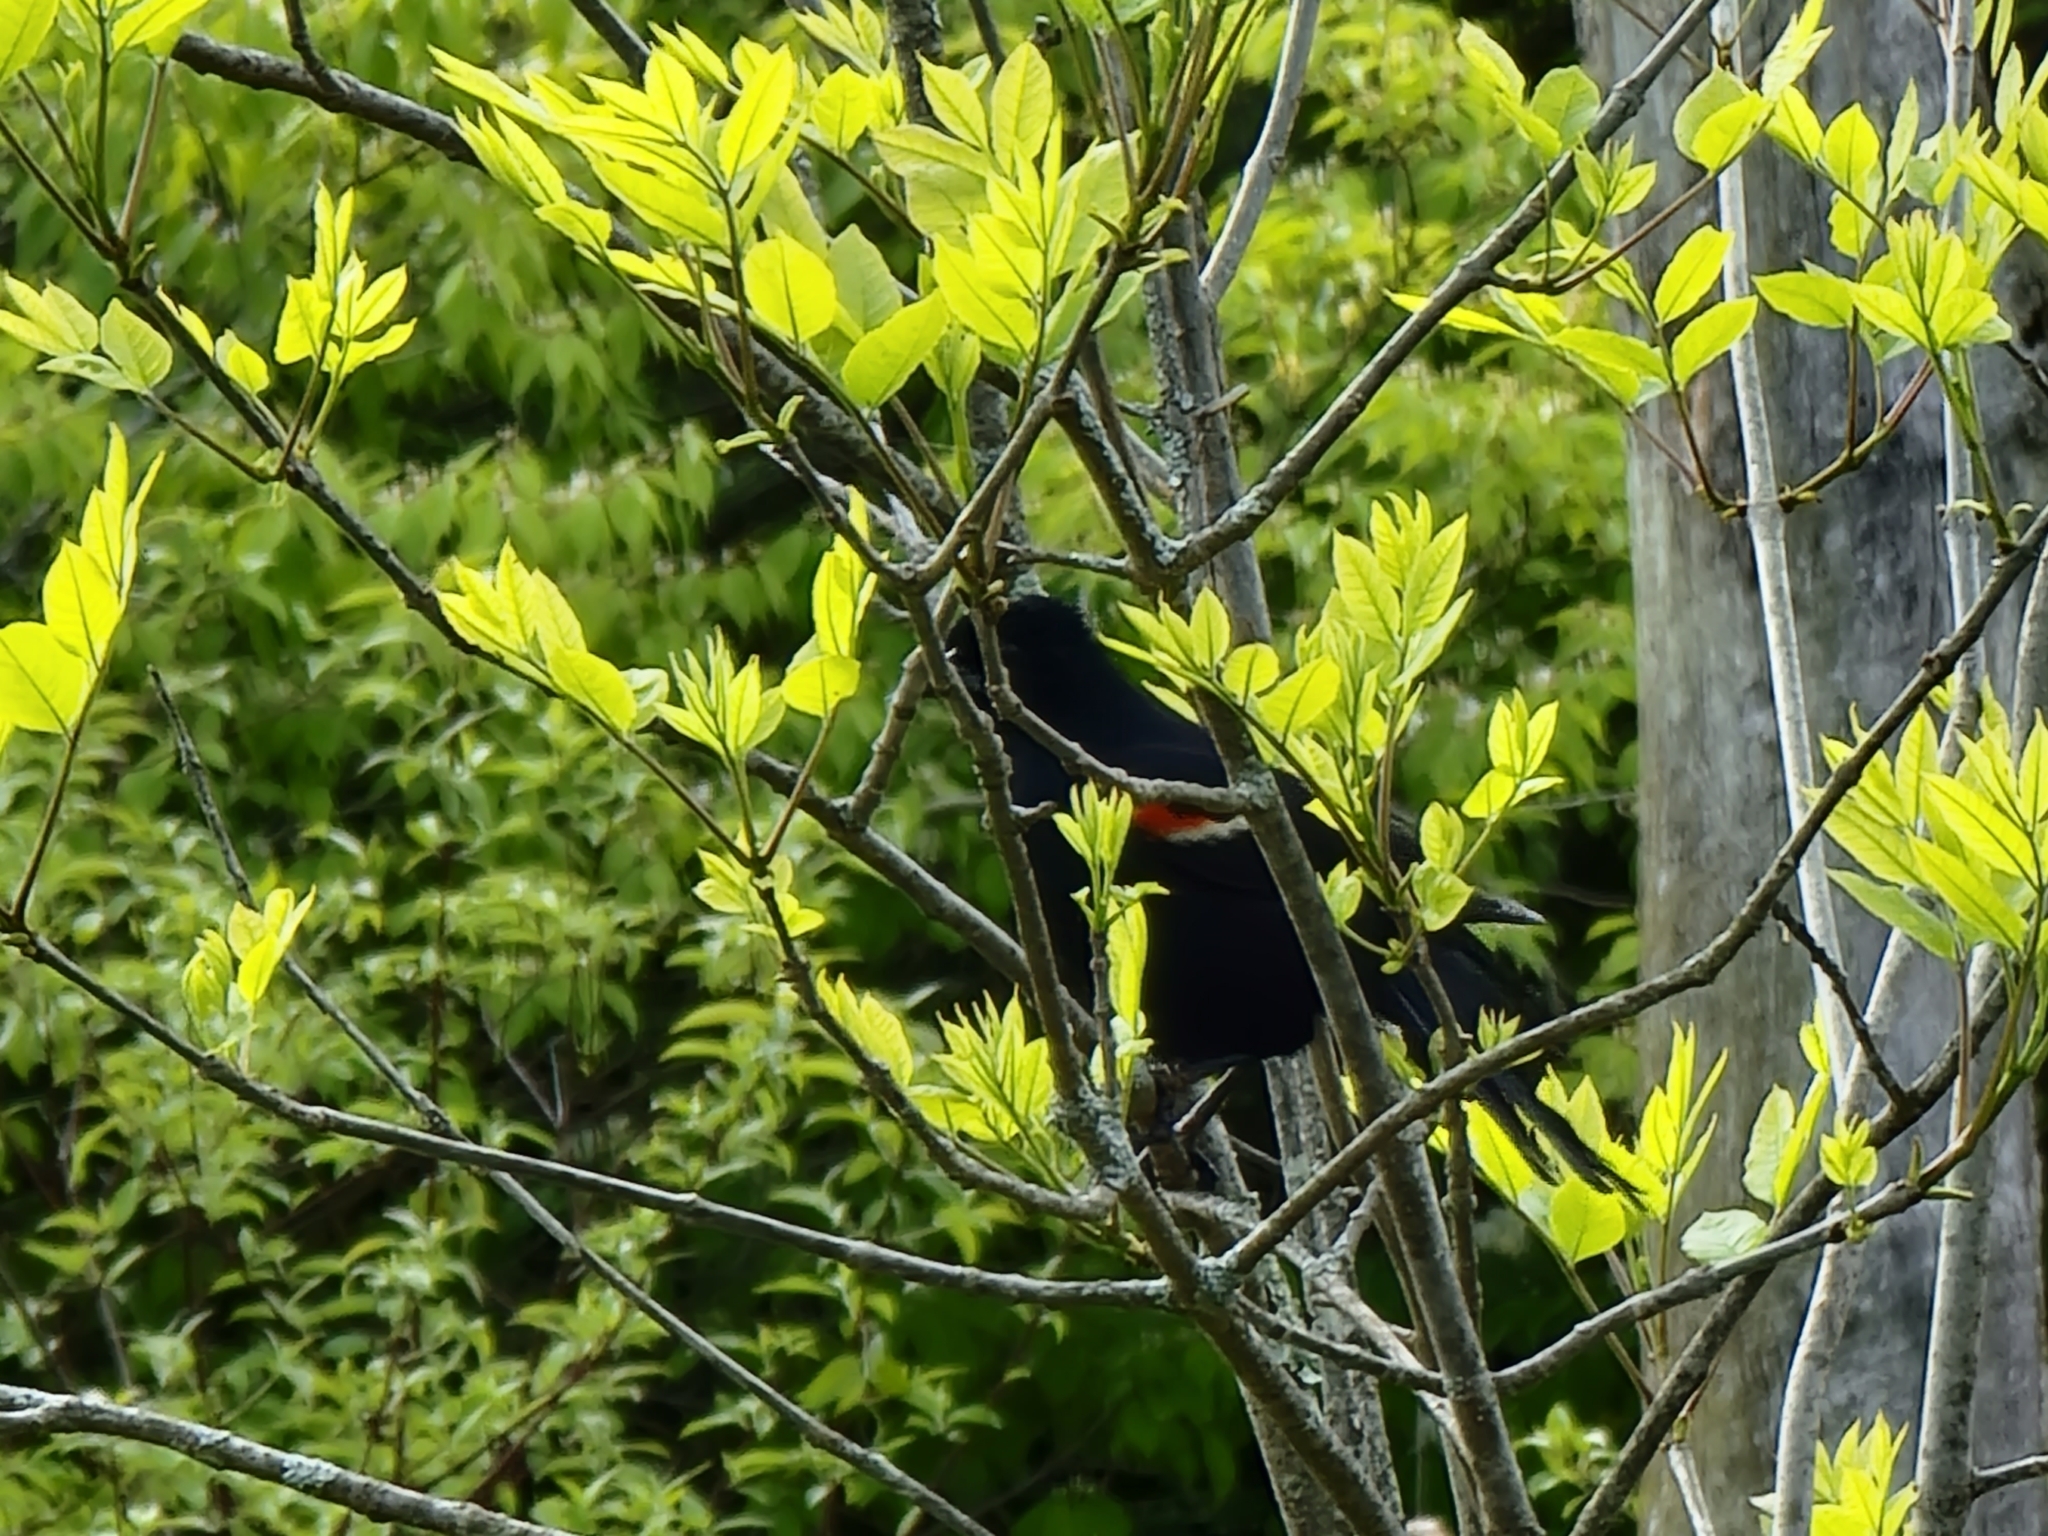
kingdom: Animalia
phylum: Chordata
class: Aves
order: Passeriformes
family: Icteridae
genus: Agelaius
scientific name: Agelaius phoeniceus
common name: Red-winged blackbird
